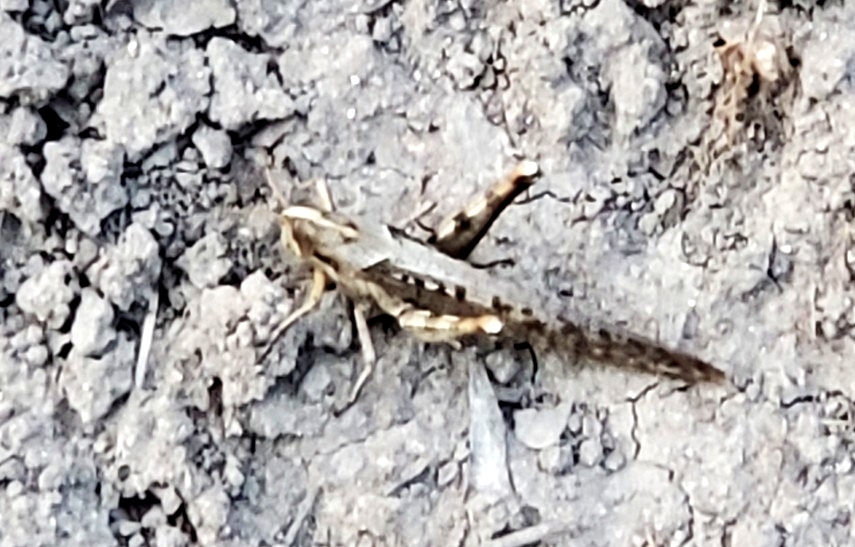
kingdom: Animalia
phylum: Arthropoda
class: Insecta
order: Orthoptera
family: Acrididae
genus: Schistocerca
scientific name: Schistocerca nitens
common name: Vagrant grasshopper
